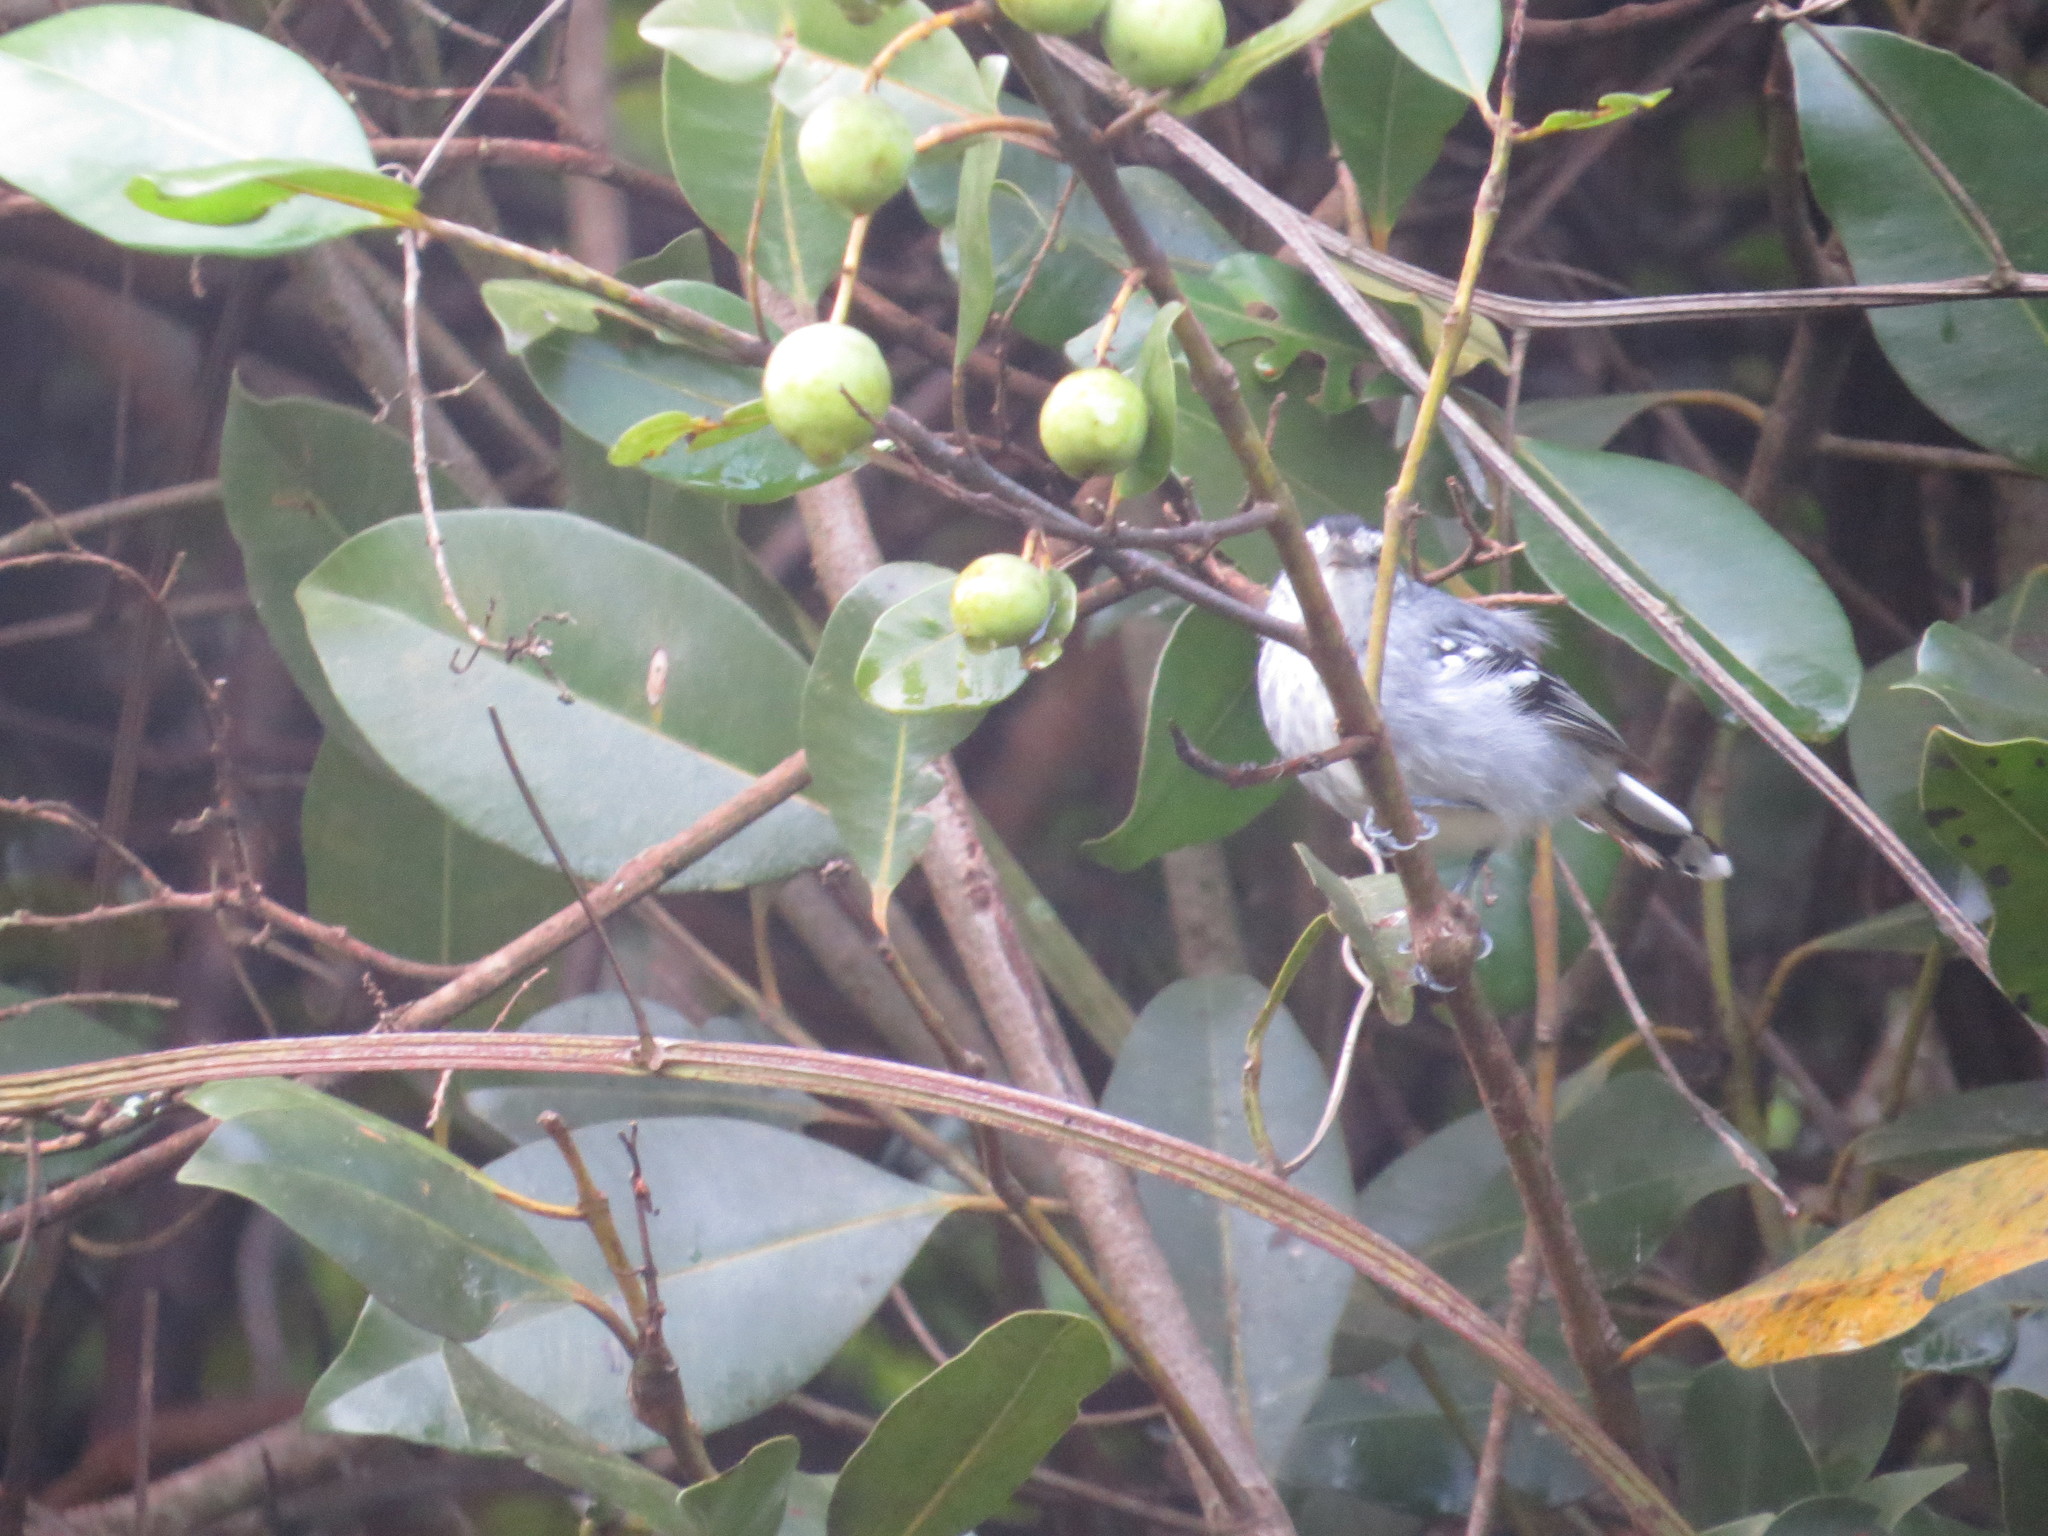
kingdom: Animalia
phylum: Chordata
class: Aves
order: Passeriformes
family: Thamnophilidae
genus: Herpsilochmus
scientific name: Herpsilochmus atricapillus
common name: Black-capped antwren
